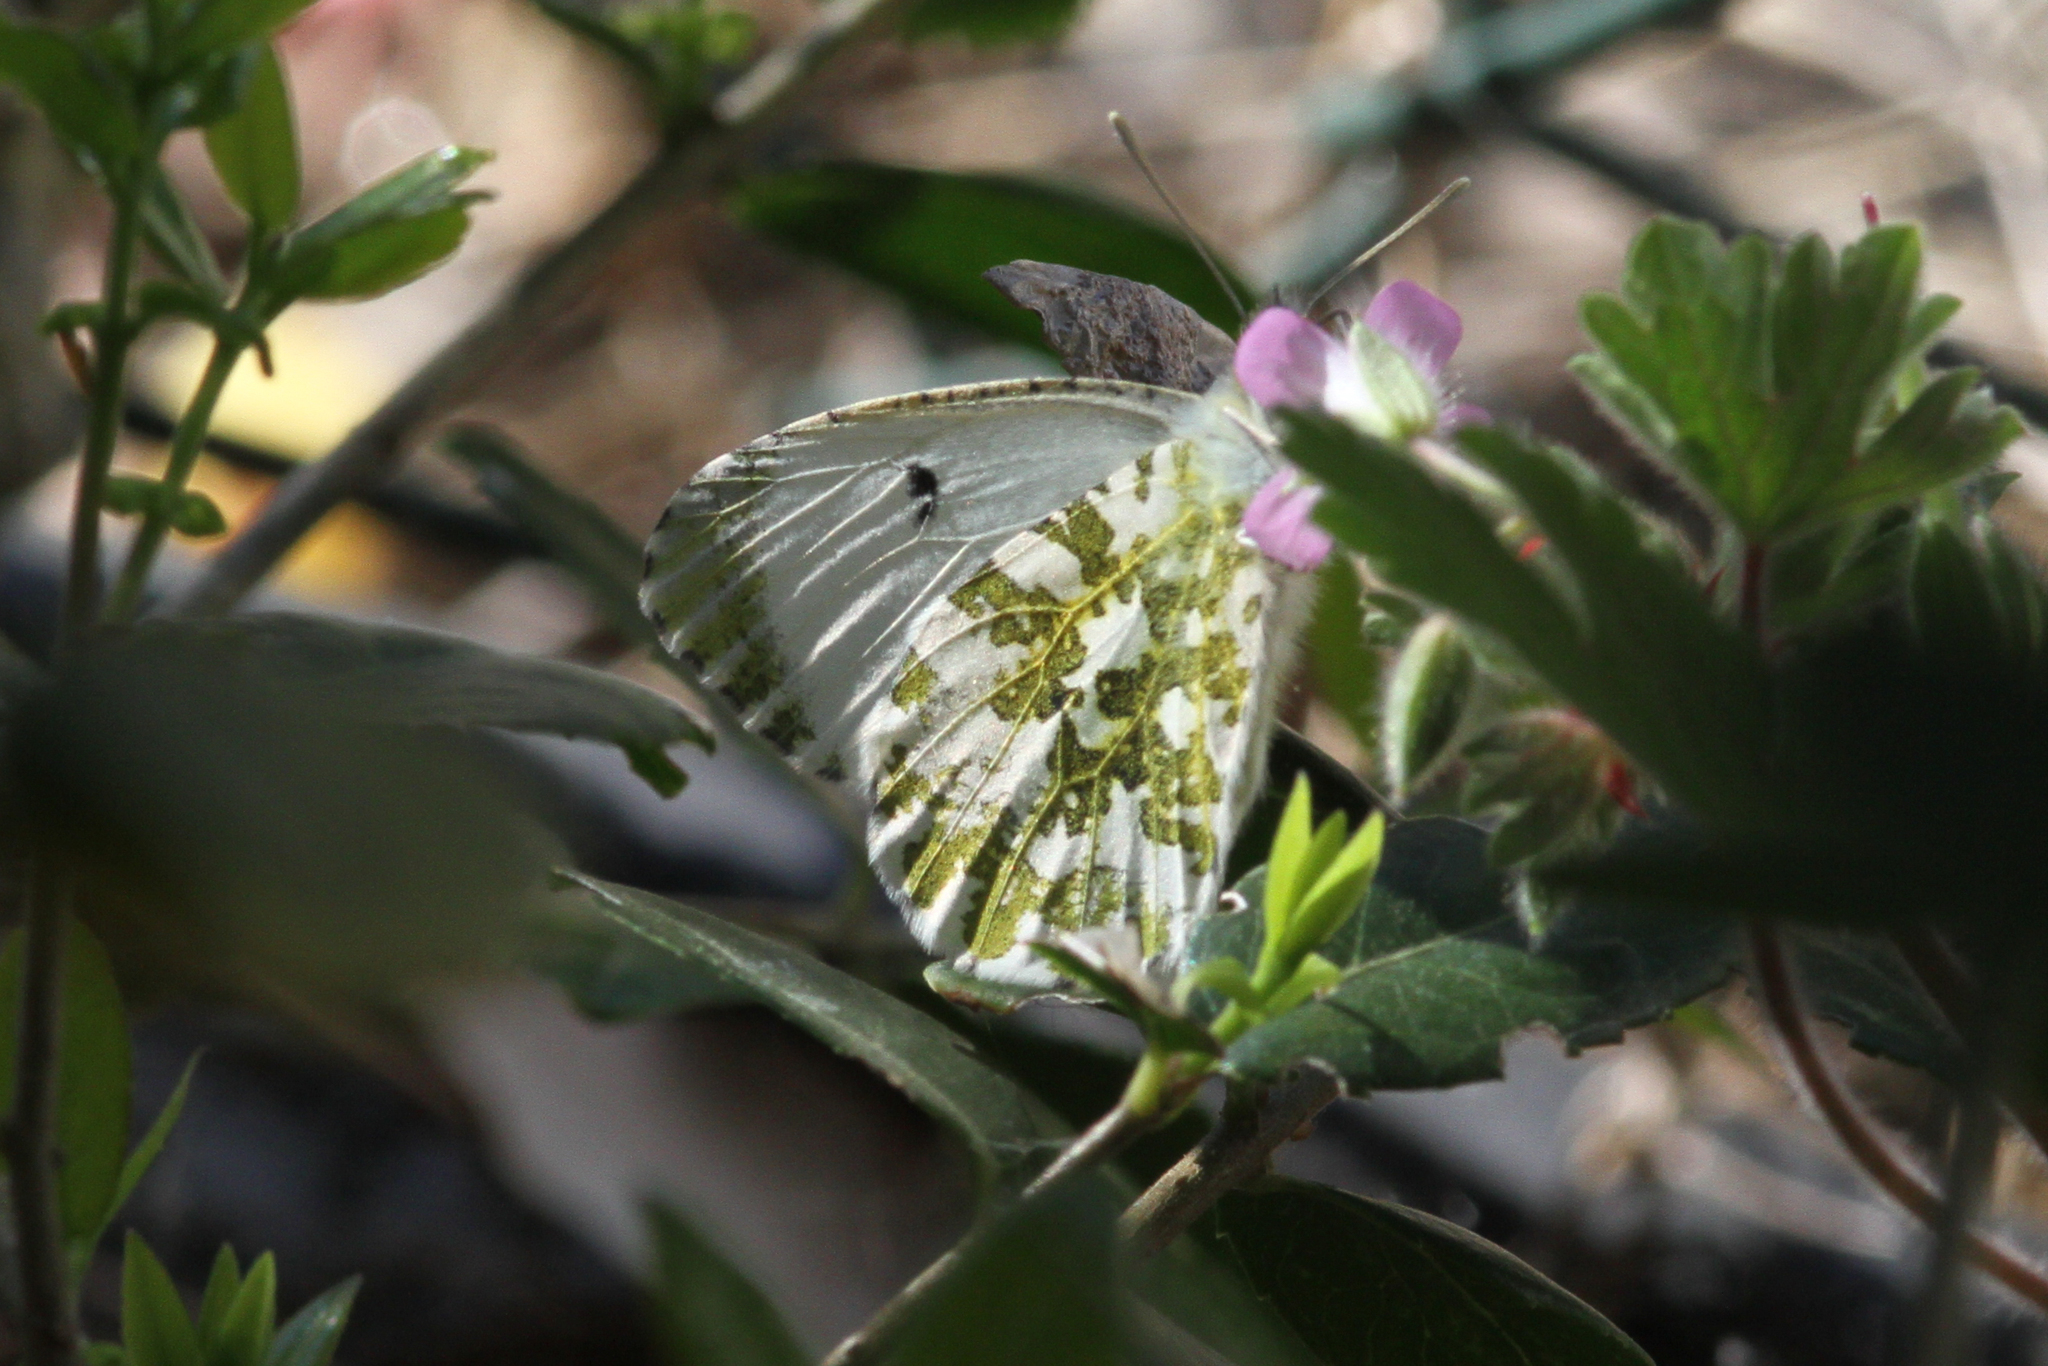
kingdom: Animalia
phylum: Arthropoda
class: Insecta
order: Lepidoptera
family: Pieridae
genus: Anthocharis
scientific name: Anthocharis cardamines
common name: Orange-tip
